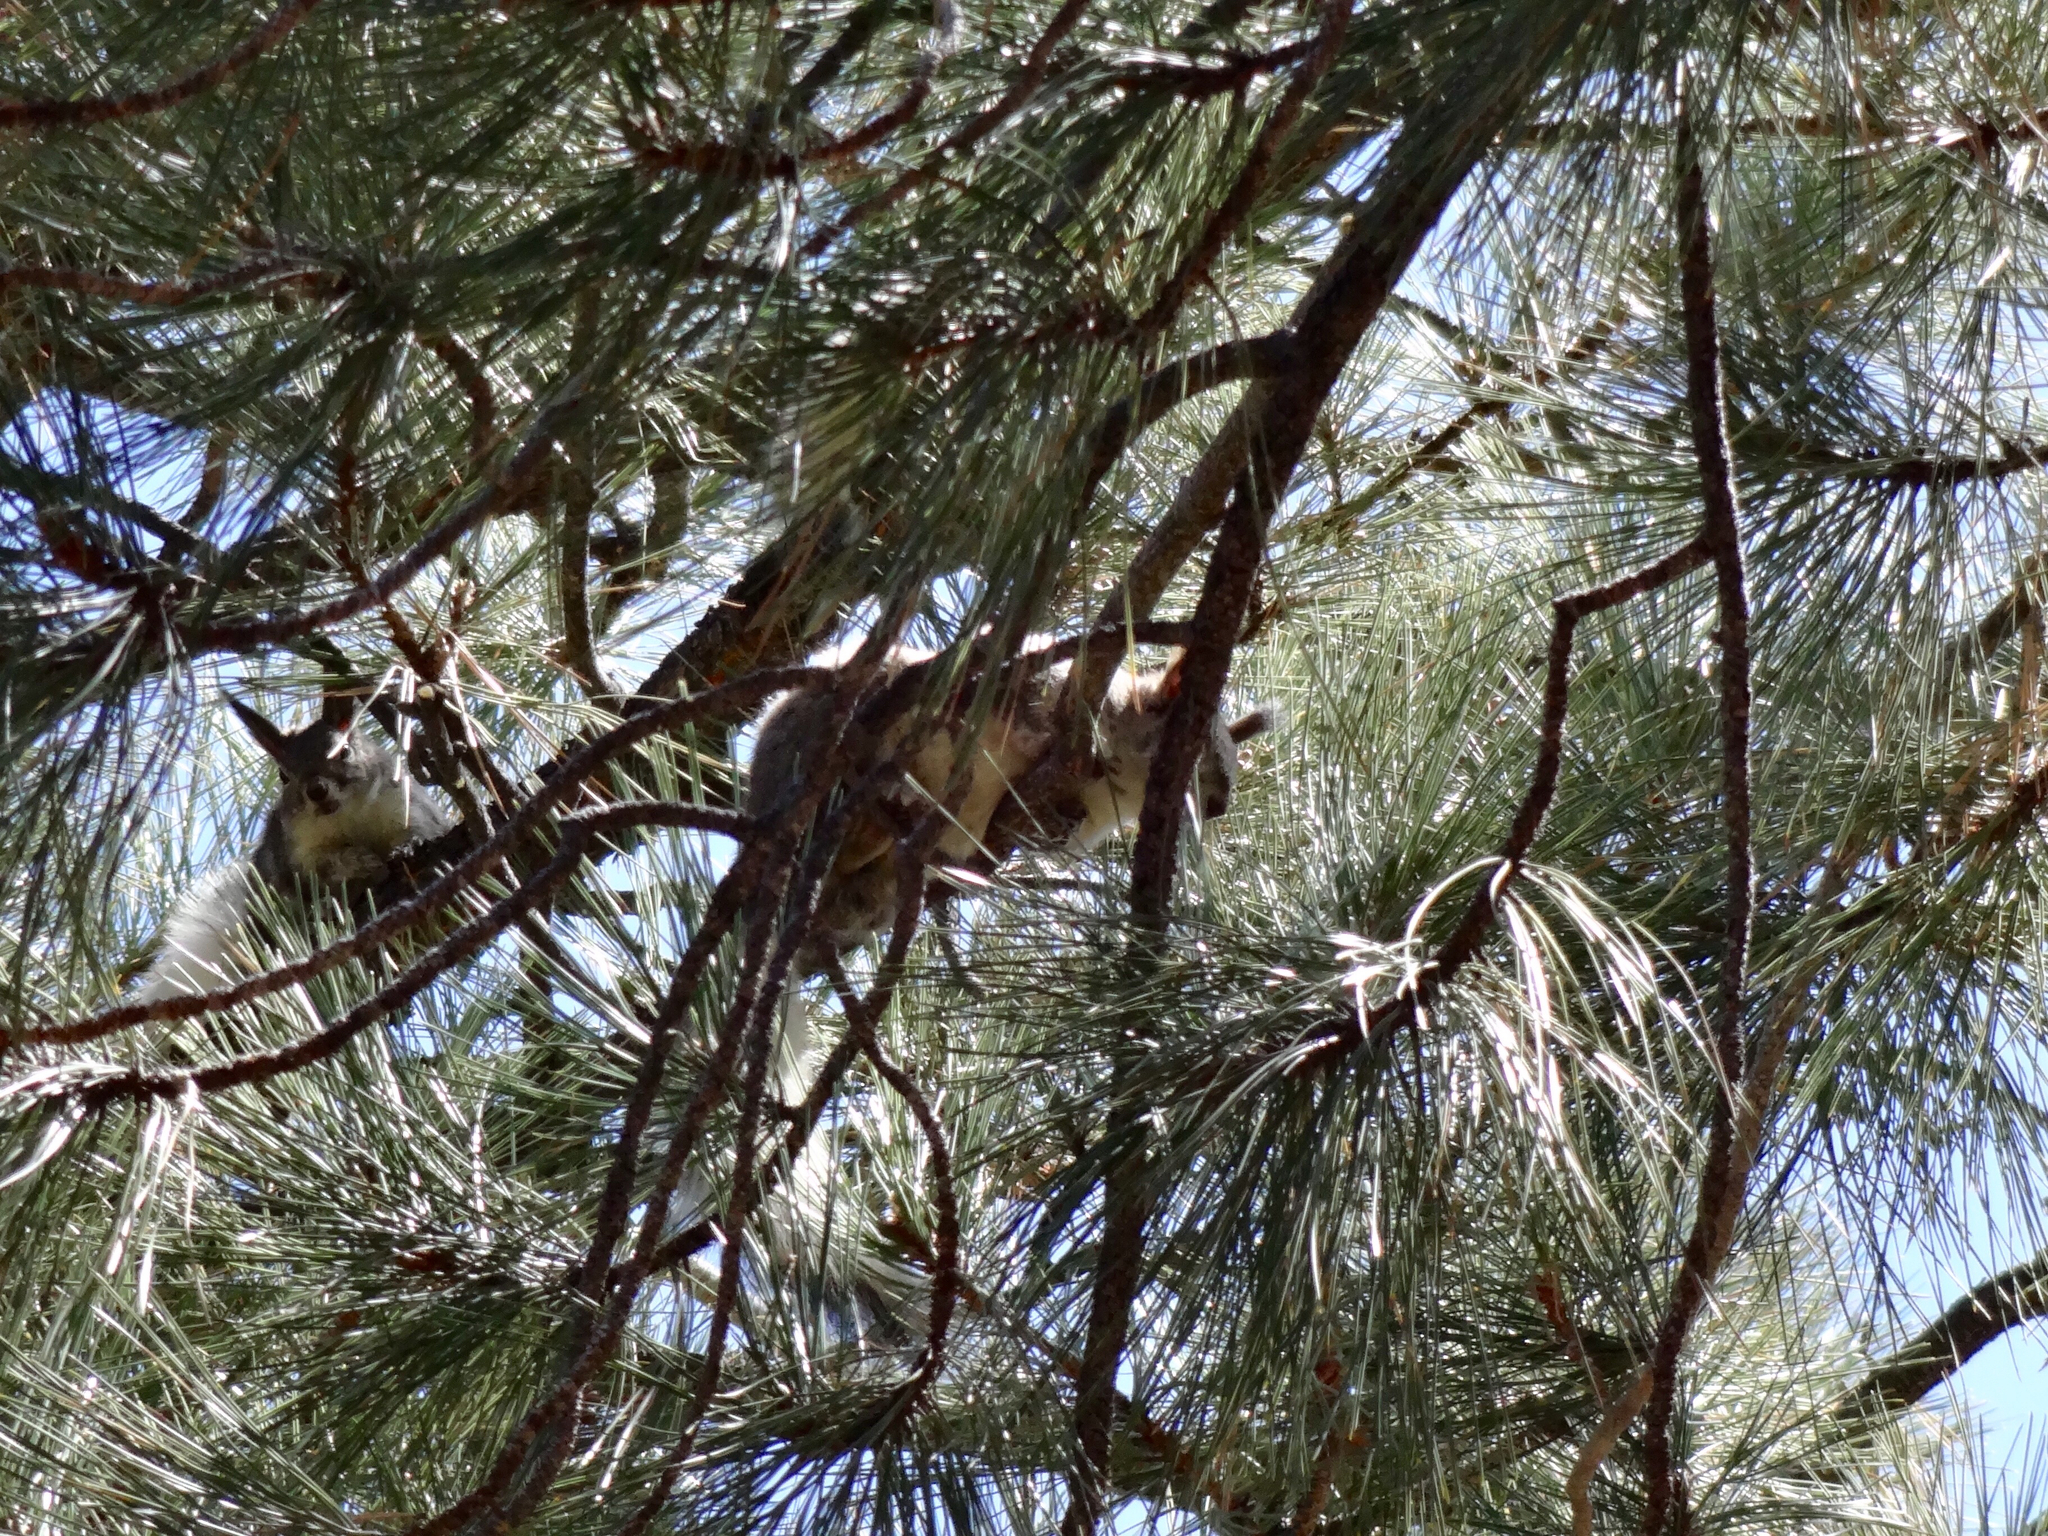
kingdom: Animalia
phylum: Chordata
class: Mammalia
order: Rodentia
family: Sciuridae
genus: Sciurus
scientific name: Sciurus aberti
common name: Abert's squirrel
